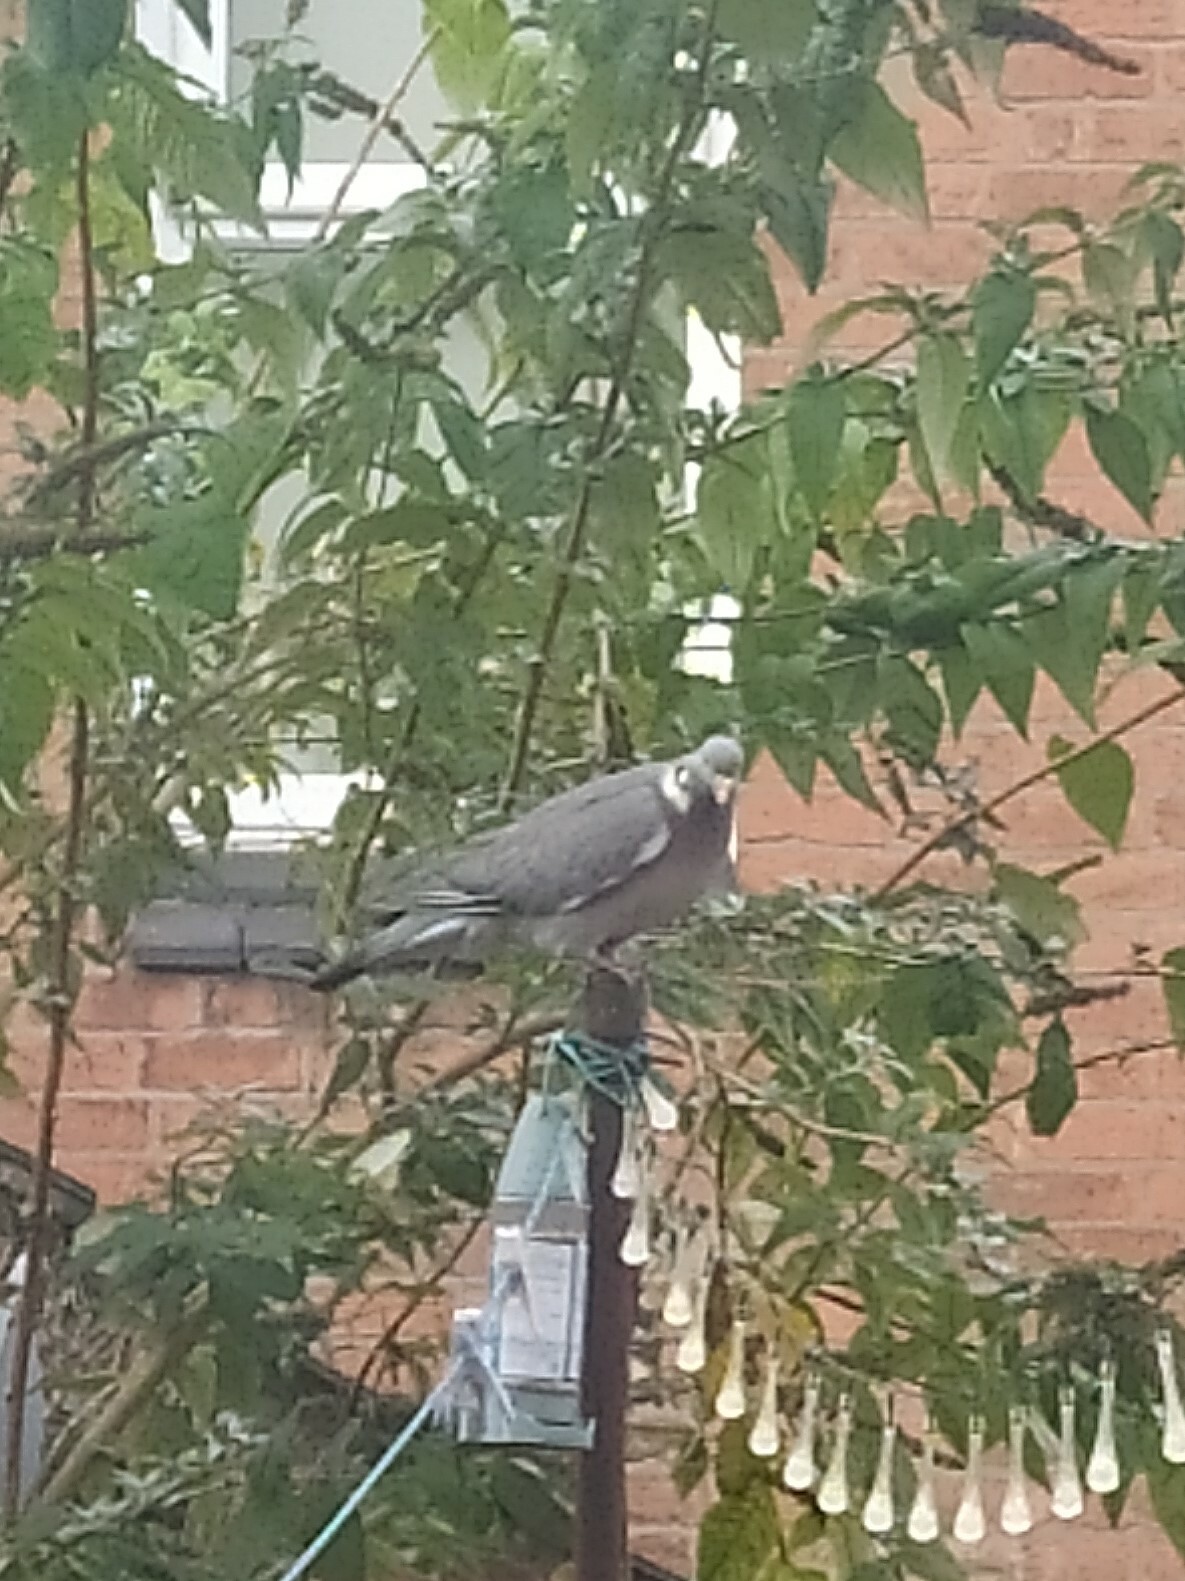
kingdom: Animalia
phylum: Chordata
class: Aves
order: Columbiformes
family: Columbidae
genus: Columba
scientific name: Columba palumbus
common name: Common wood pigeon
